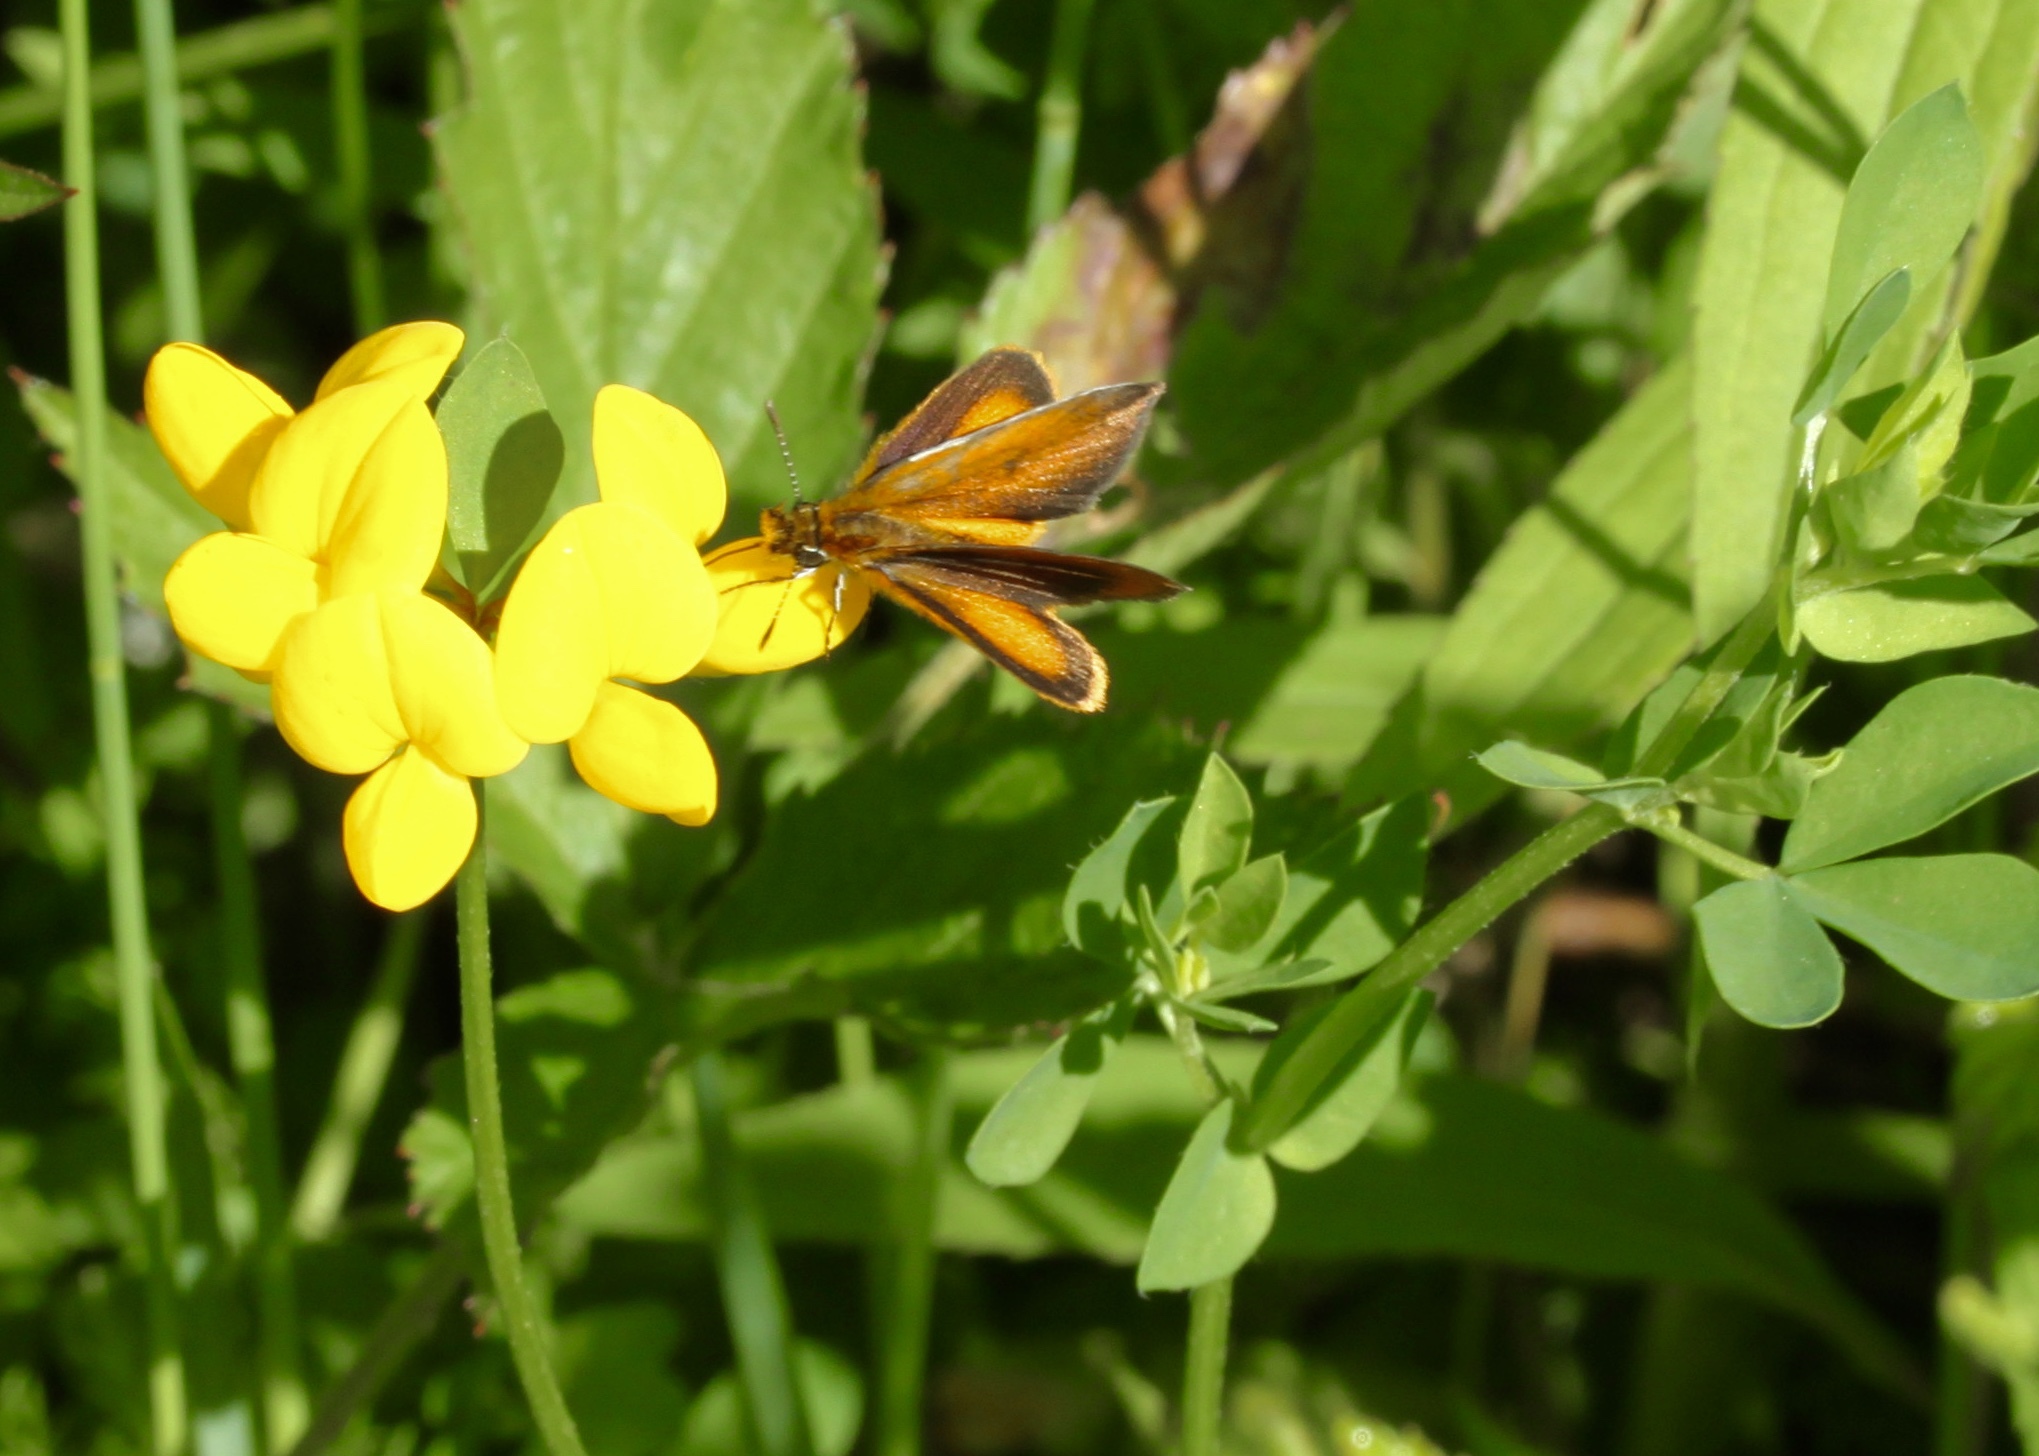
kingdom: Animalia
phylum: Arthropoda
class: Insecta
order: Lepidoptera
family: Hesperiidae
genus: Ancyloxypha
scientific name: Ancyloxypha numitor
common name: Least skipper
